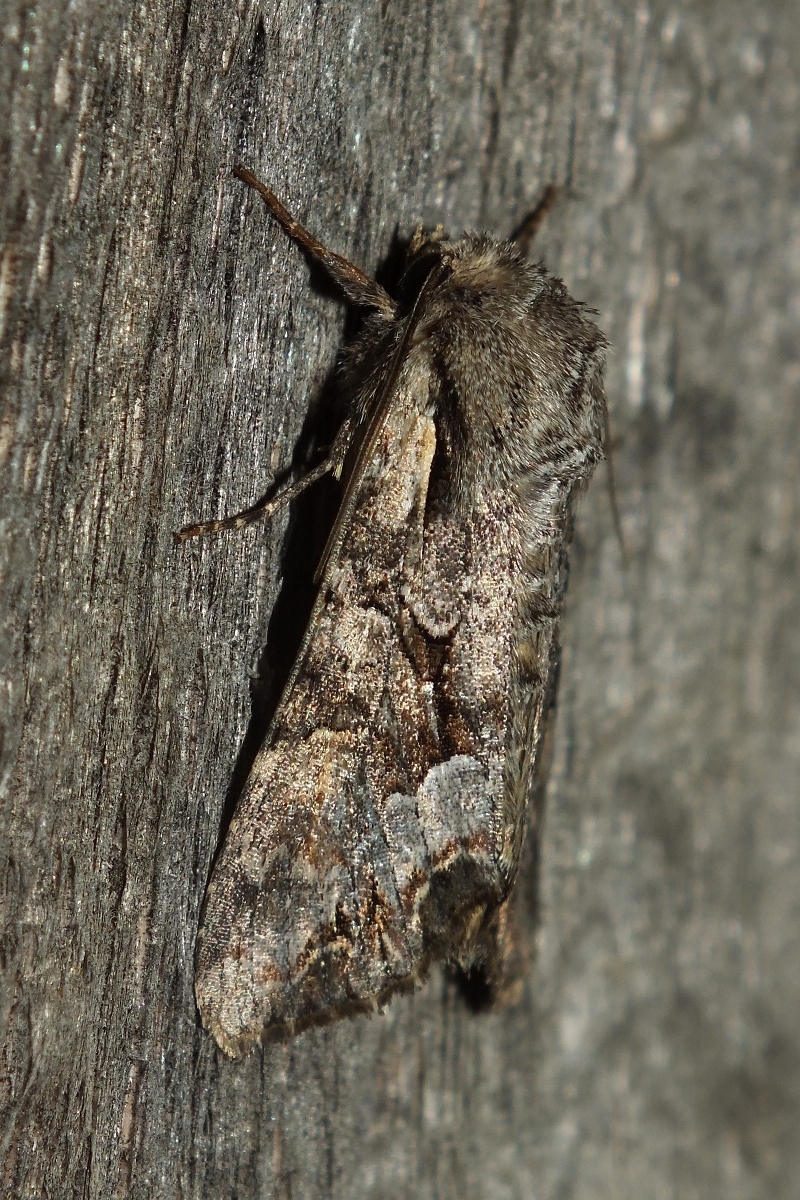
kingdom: Animalia
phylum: Arthropoda
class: Insecta
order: Lepidoptera
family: Noctuidae
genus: Lacanobia
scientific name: Lacanobia w-latinum
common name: Light brocade
